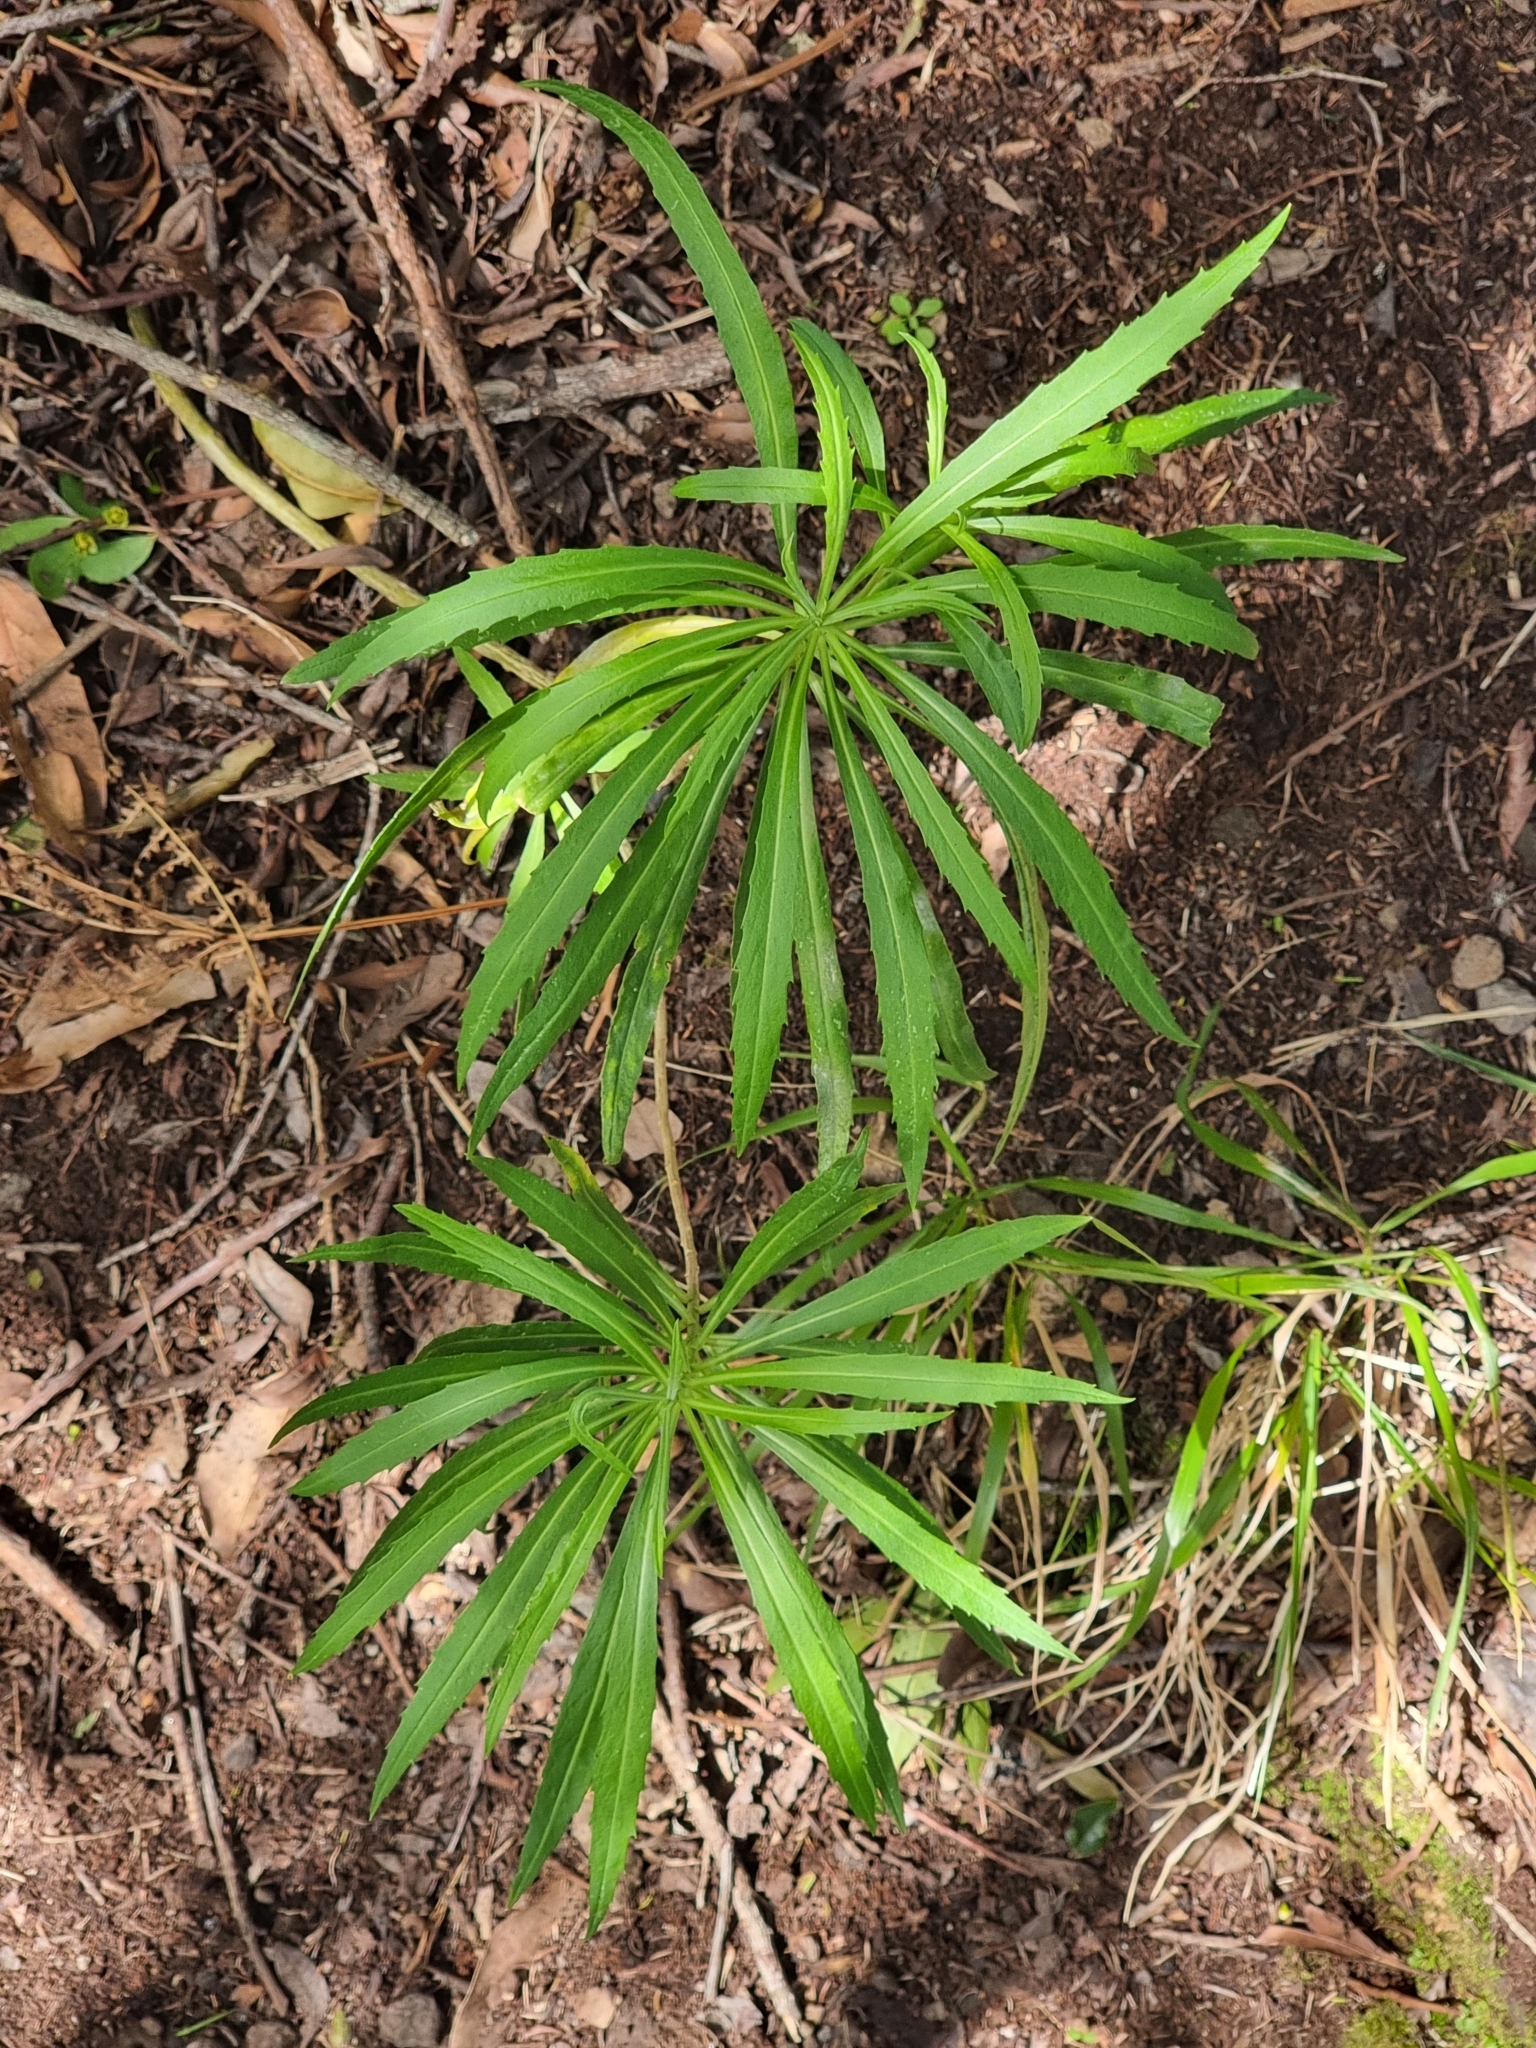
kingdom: Plantae
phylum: Tracheophyta
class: Magnoliopsida
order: Brassicales
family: Brassicaceae
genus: Erysimum
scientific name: Erysimum bicolor
